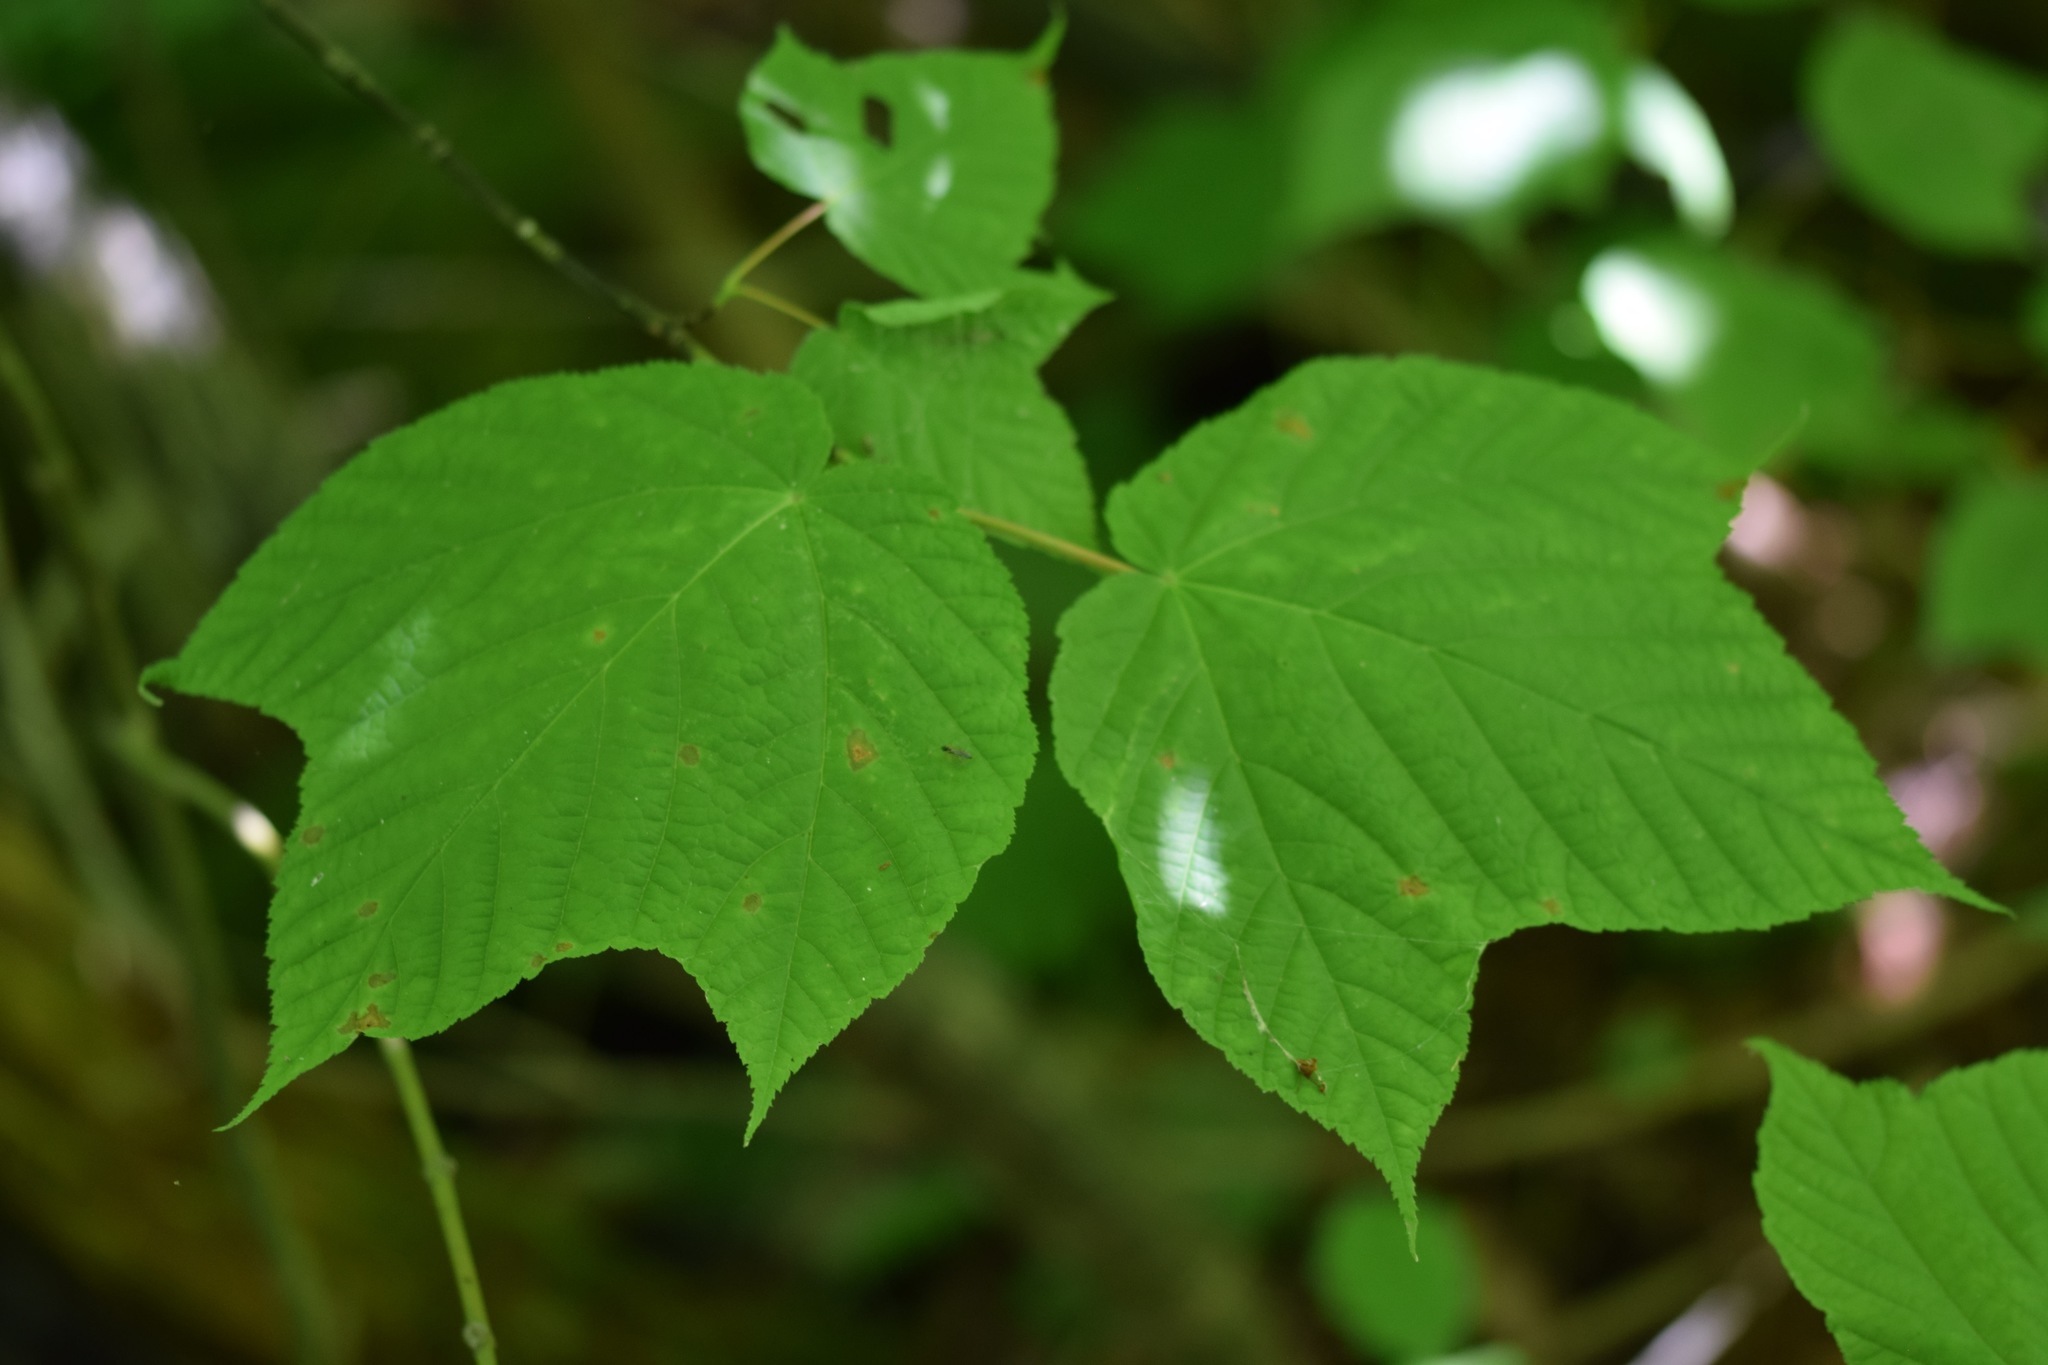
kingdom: Plantae
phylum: Tracheophyta
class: Magnoliopsida
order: Sapindales
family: Sapindaceae
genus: Acer
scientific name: Acer pensylvanicum
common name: Moosewood
